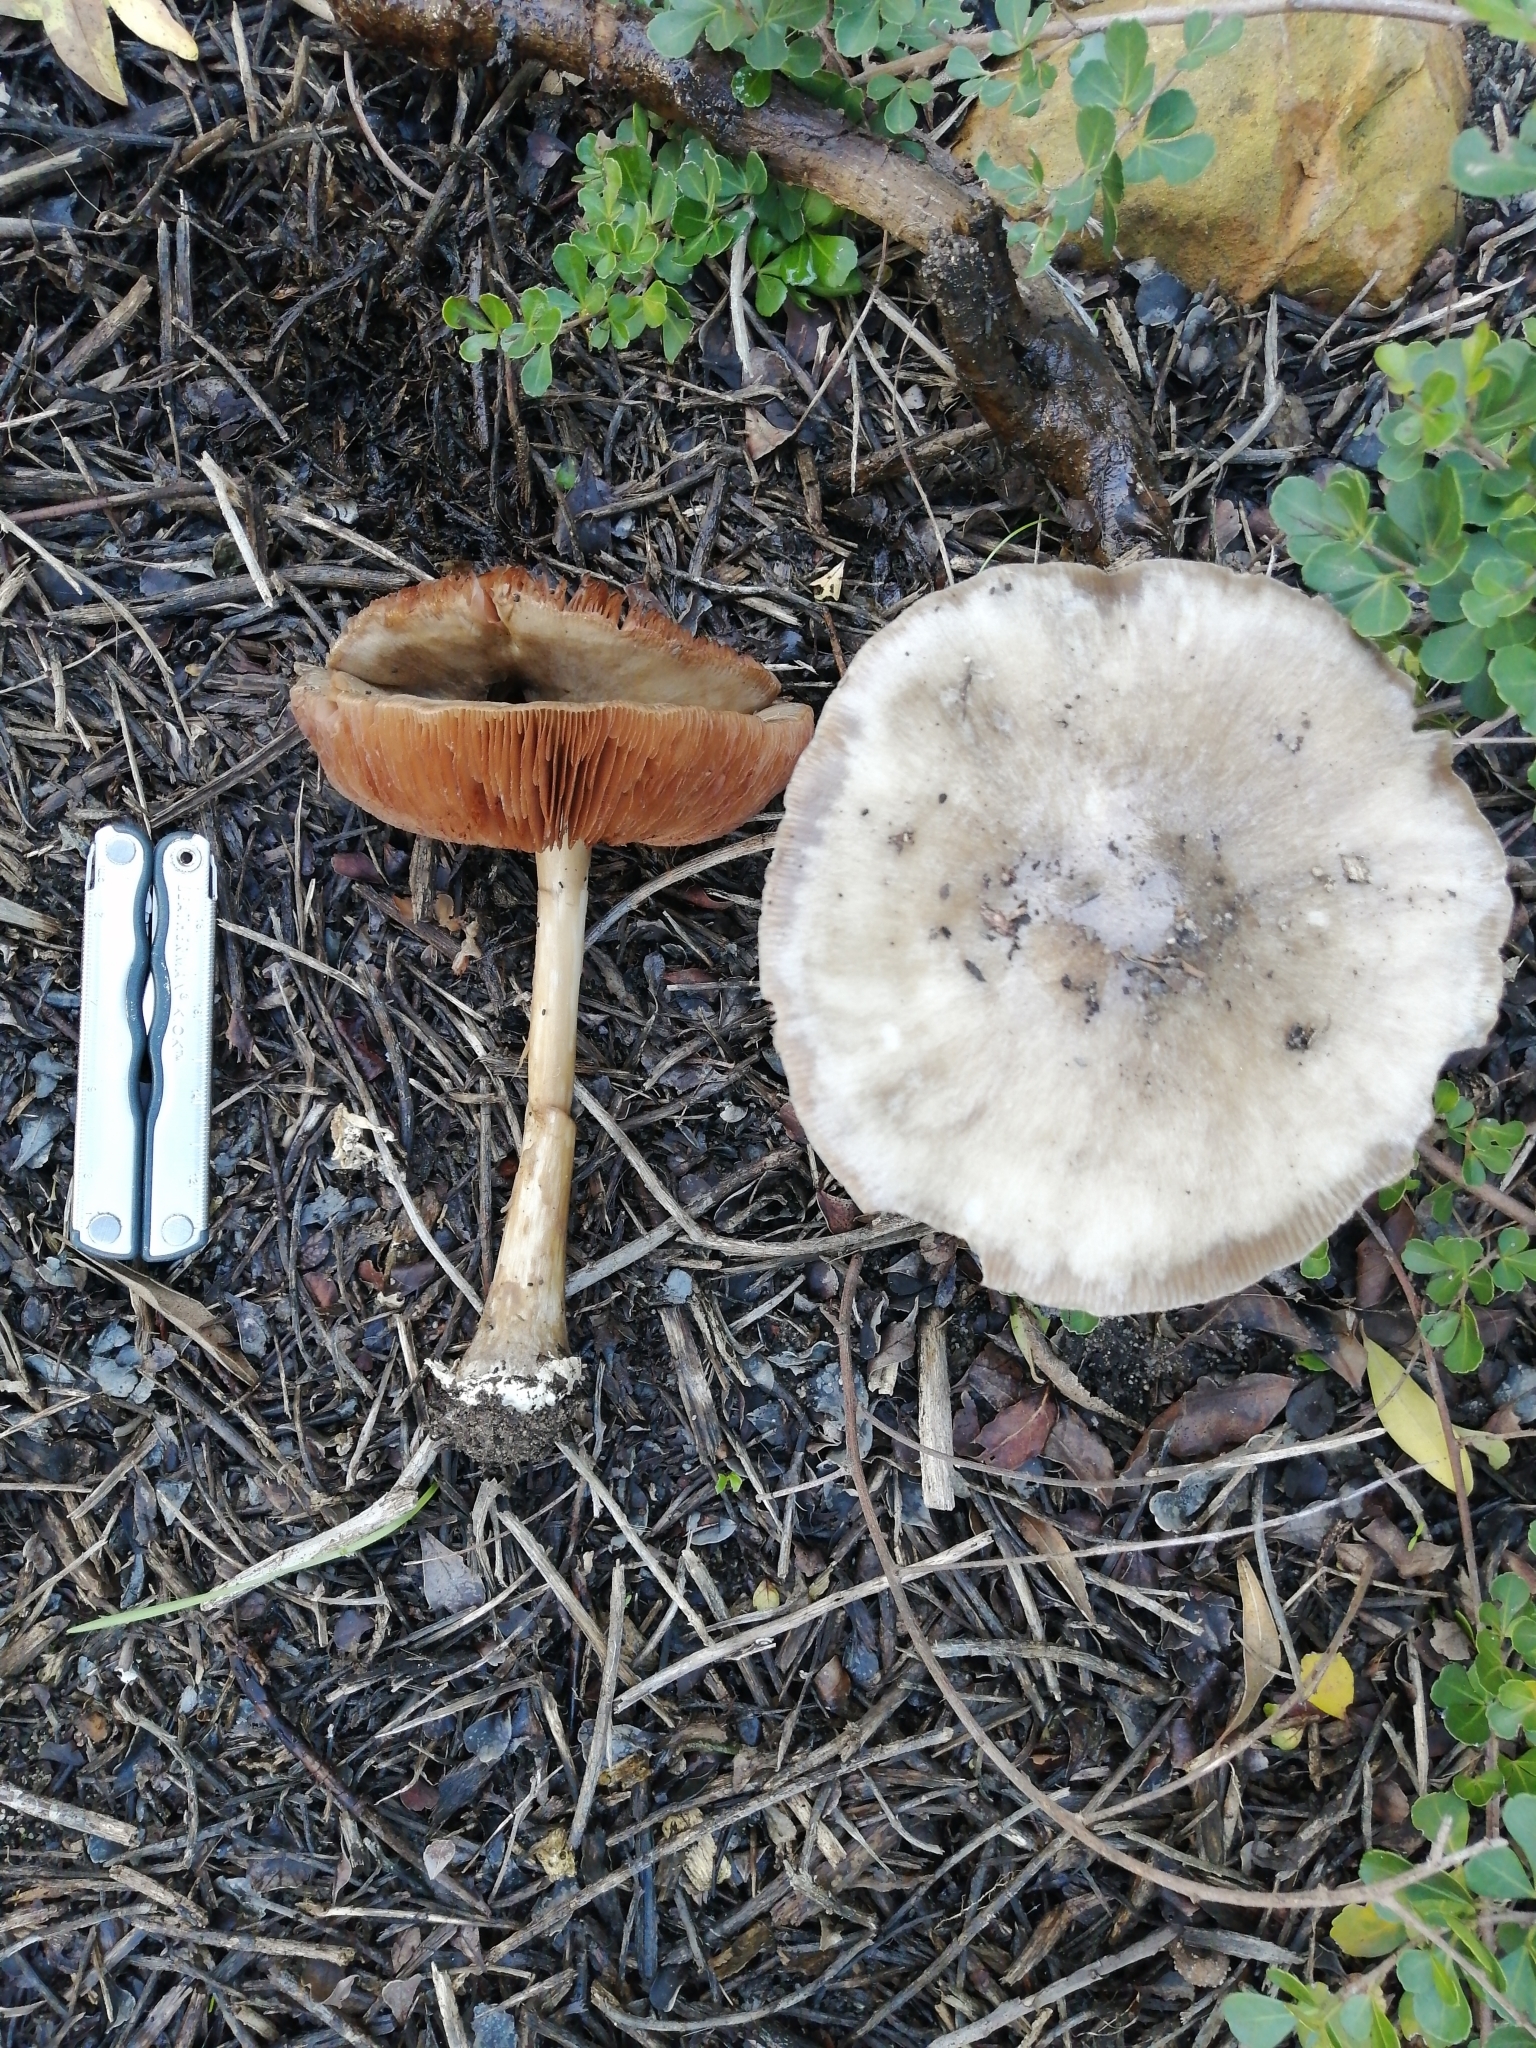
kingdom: Fungi
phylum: Basidiomycota
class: Agaricomycetes
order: Agaricales
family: Pluteaceae
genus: Volvopluteus
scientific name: Volvopluteus gloiocephalus
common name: Stubble rosegill
